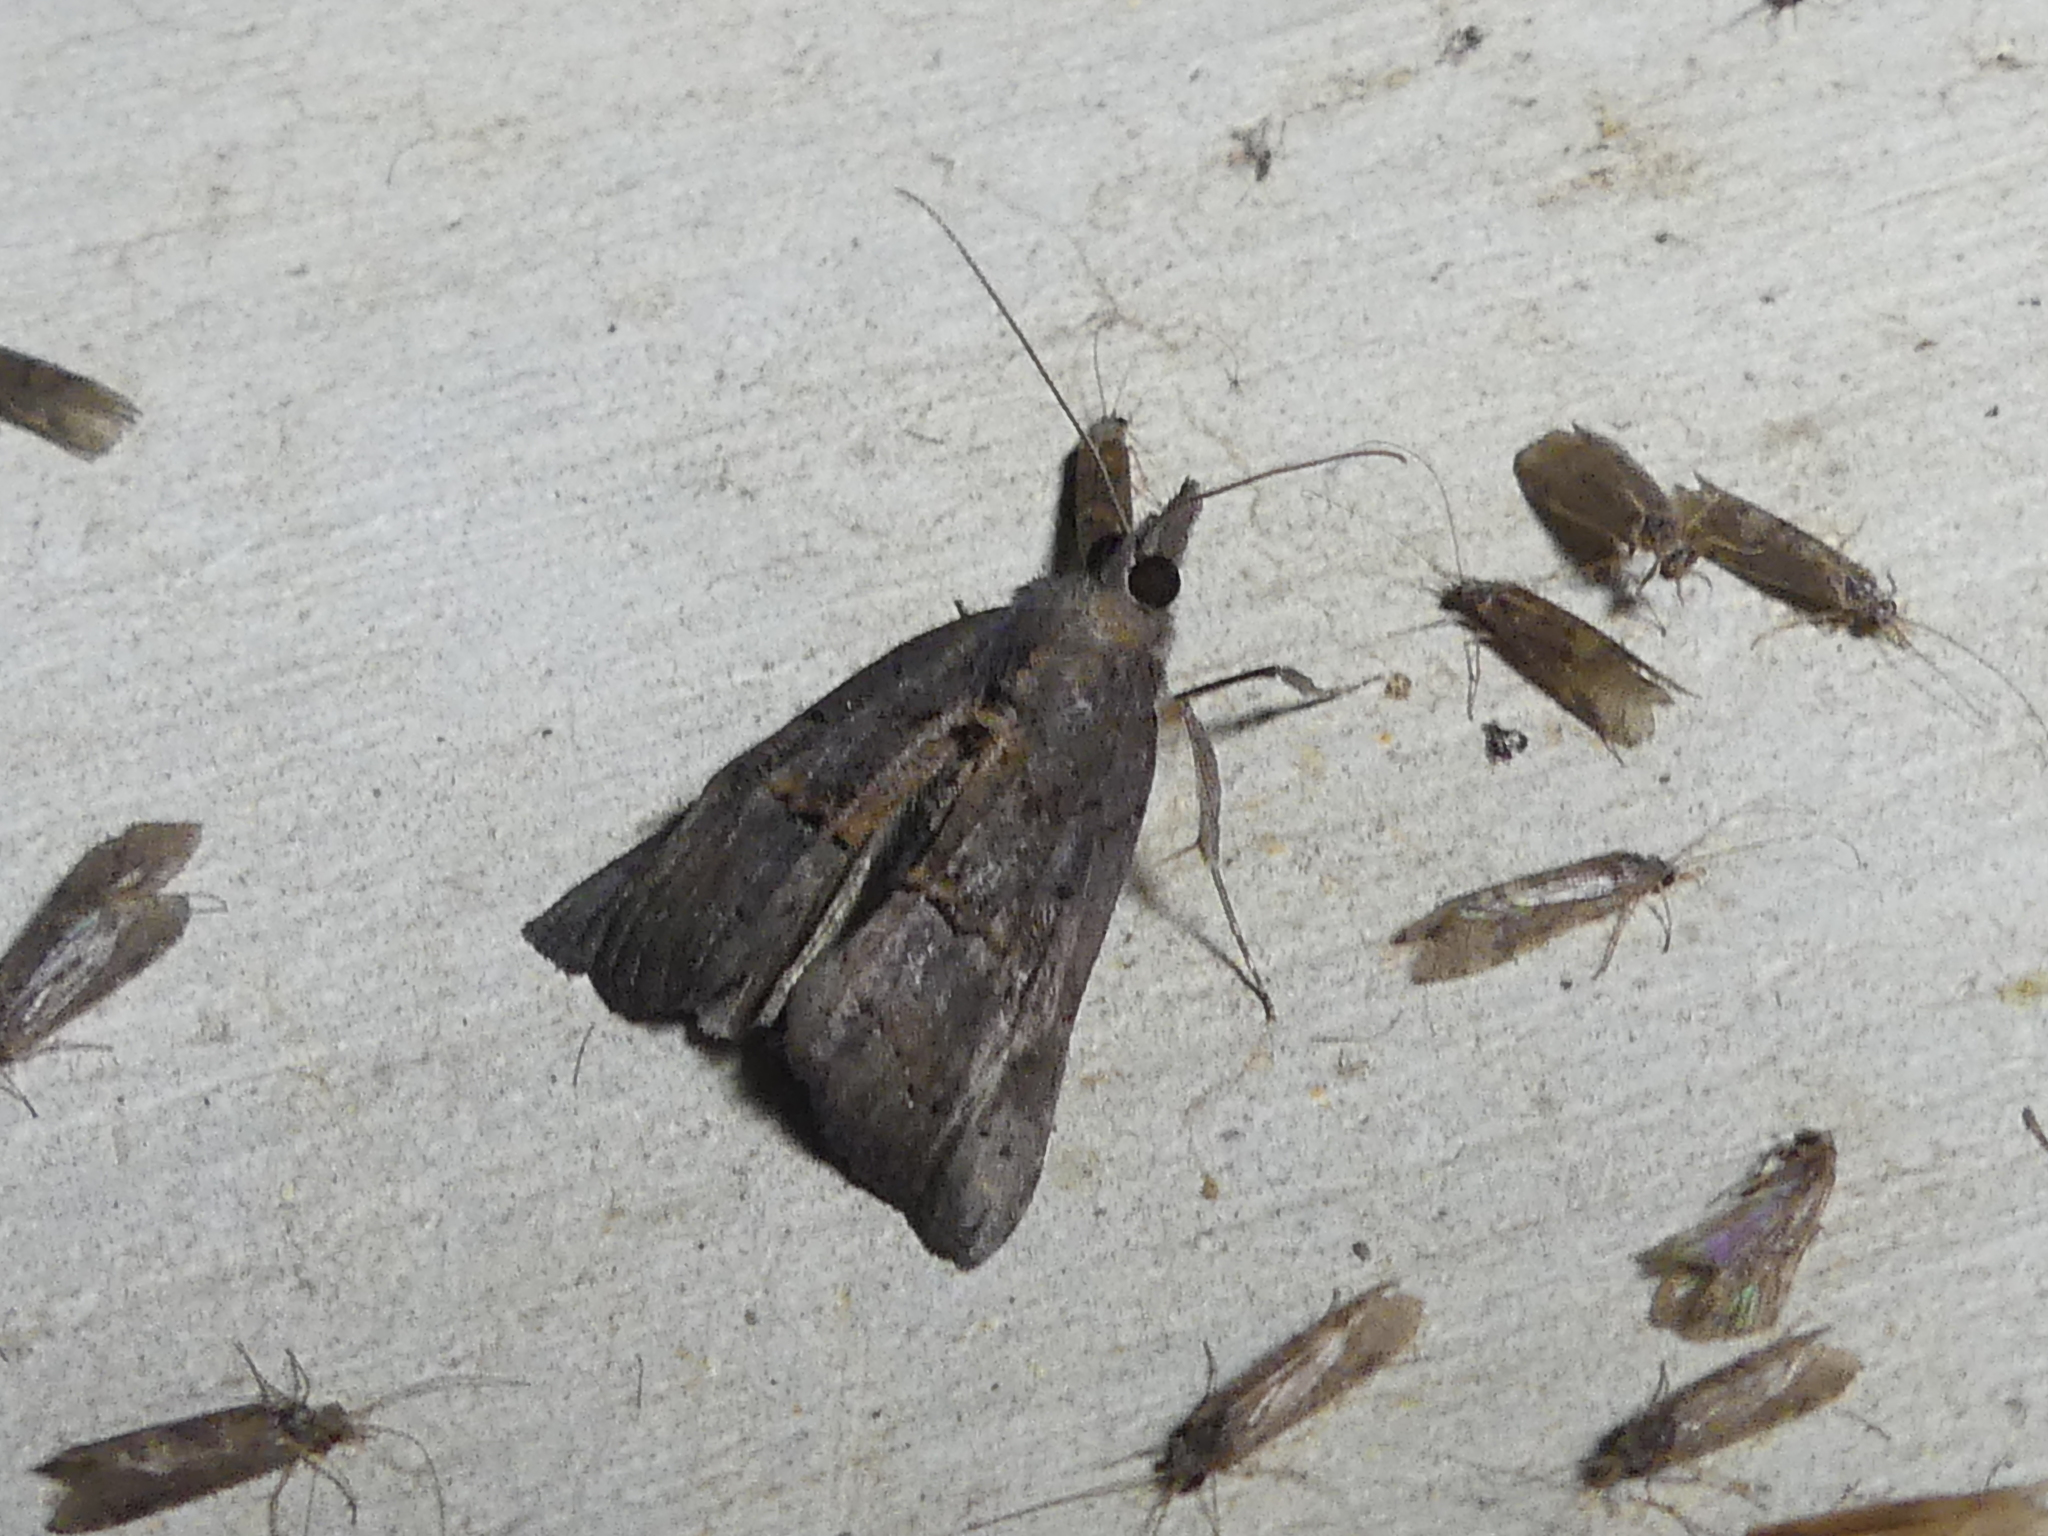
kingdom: Animalia
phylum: Arthropoda
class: Insecta
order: Lepidoptera
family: Erebidae
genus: Hypena
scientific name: Hypena scabra
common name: Green cloverworm
